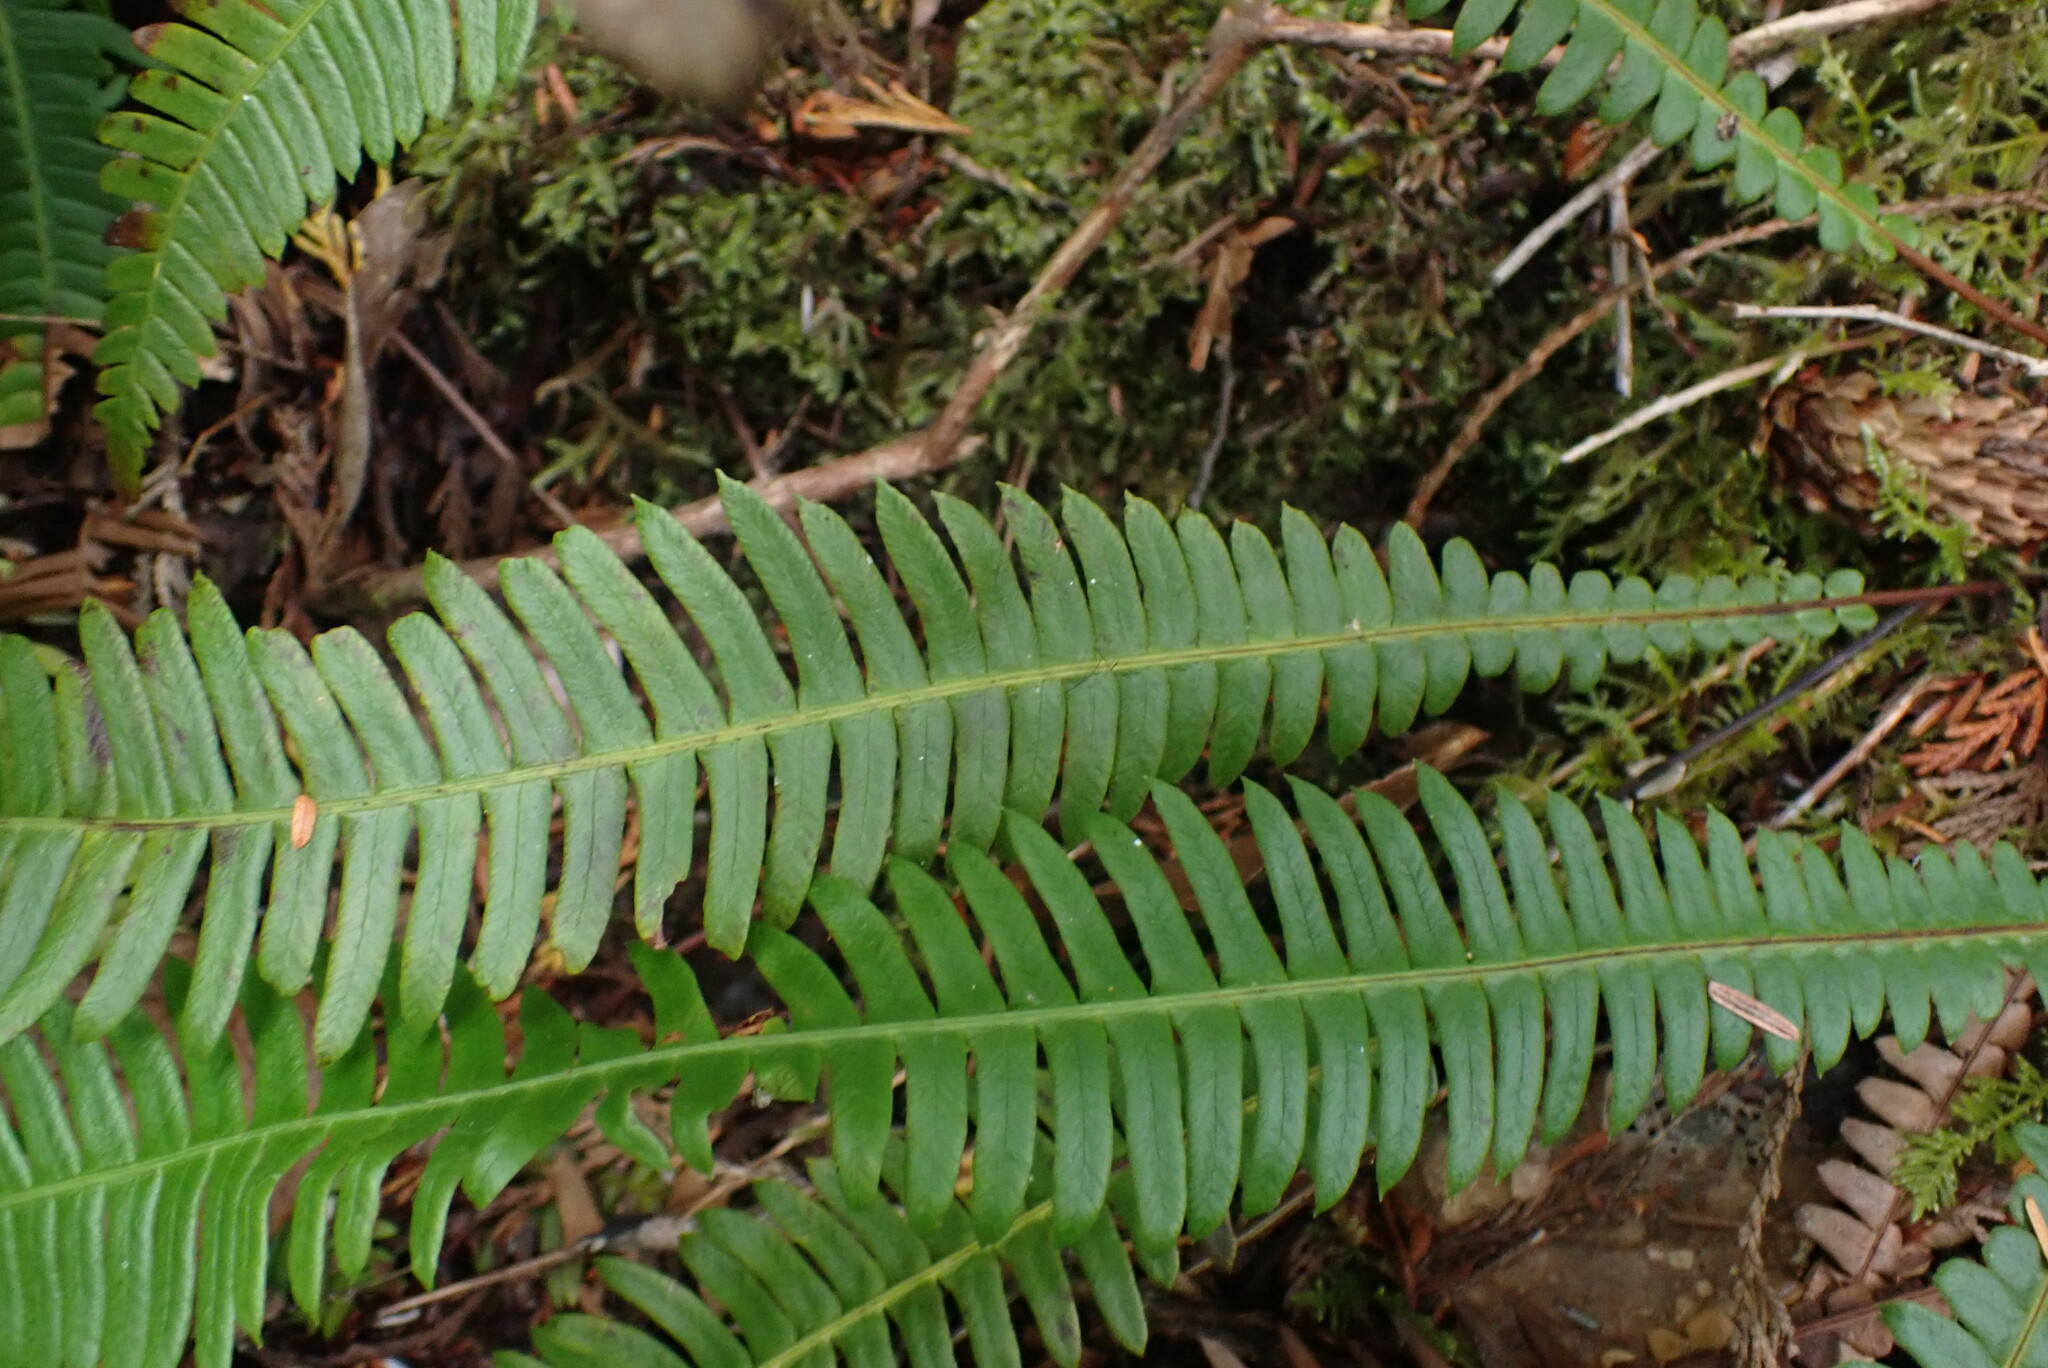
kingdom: Plantae
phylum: Tracheophyta
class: Polypodiopsida
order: Polypodiales
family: Blechnaceae
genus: Struthiopteris
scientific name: Struthiopteris spicant
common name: Deer fern
